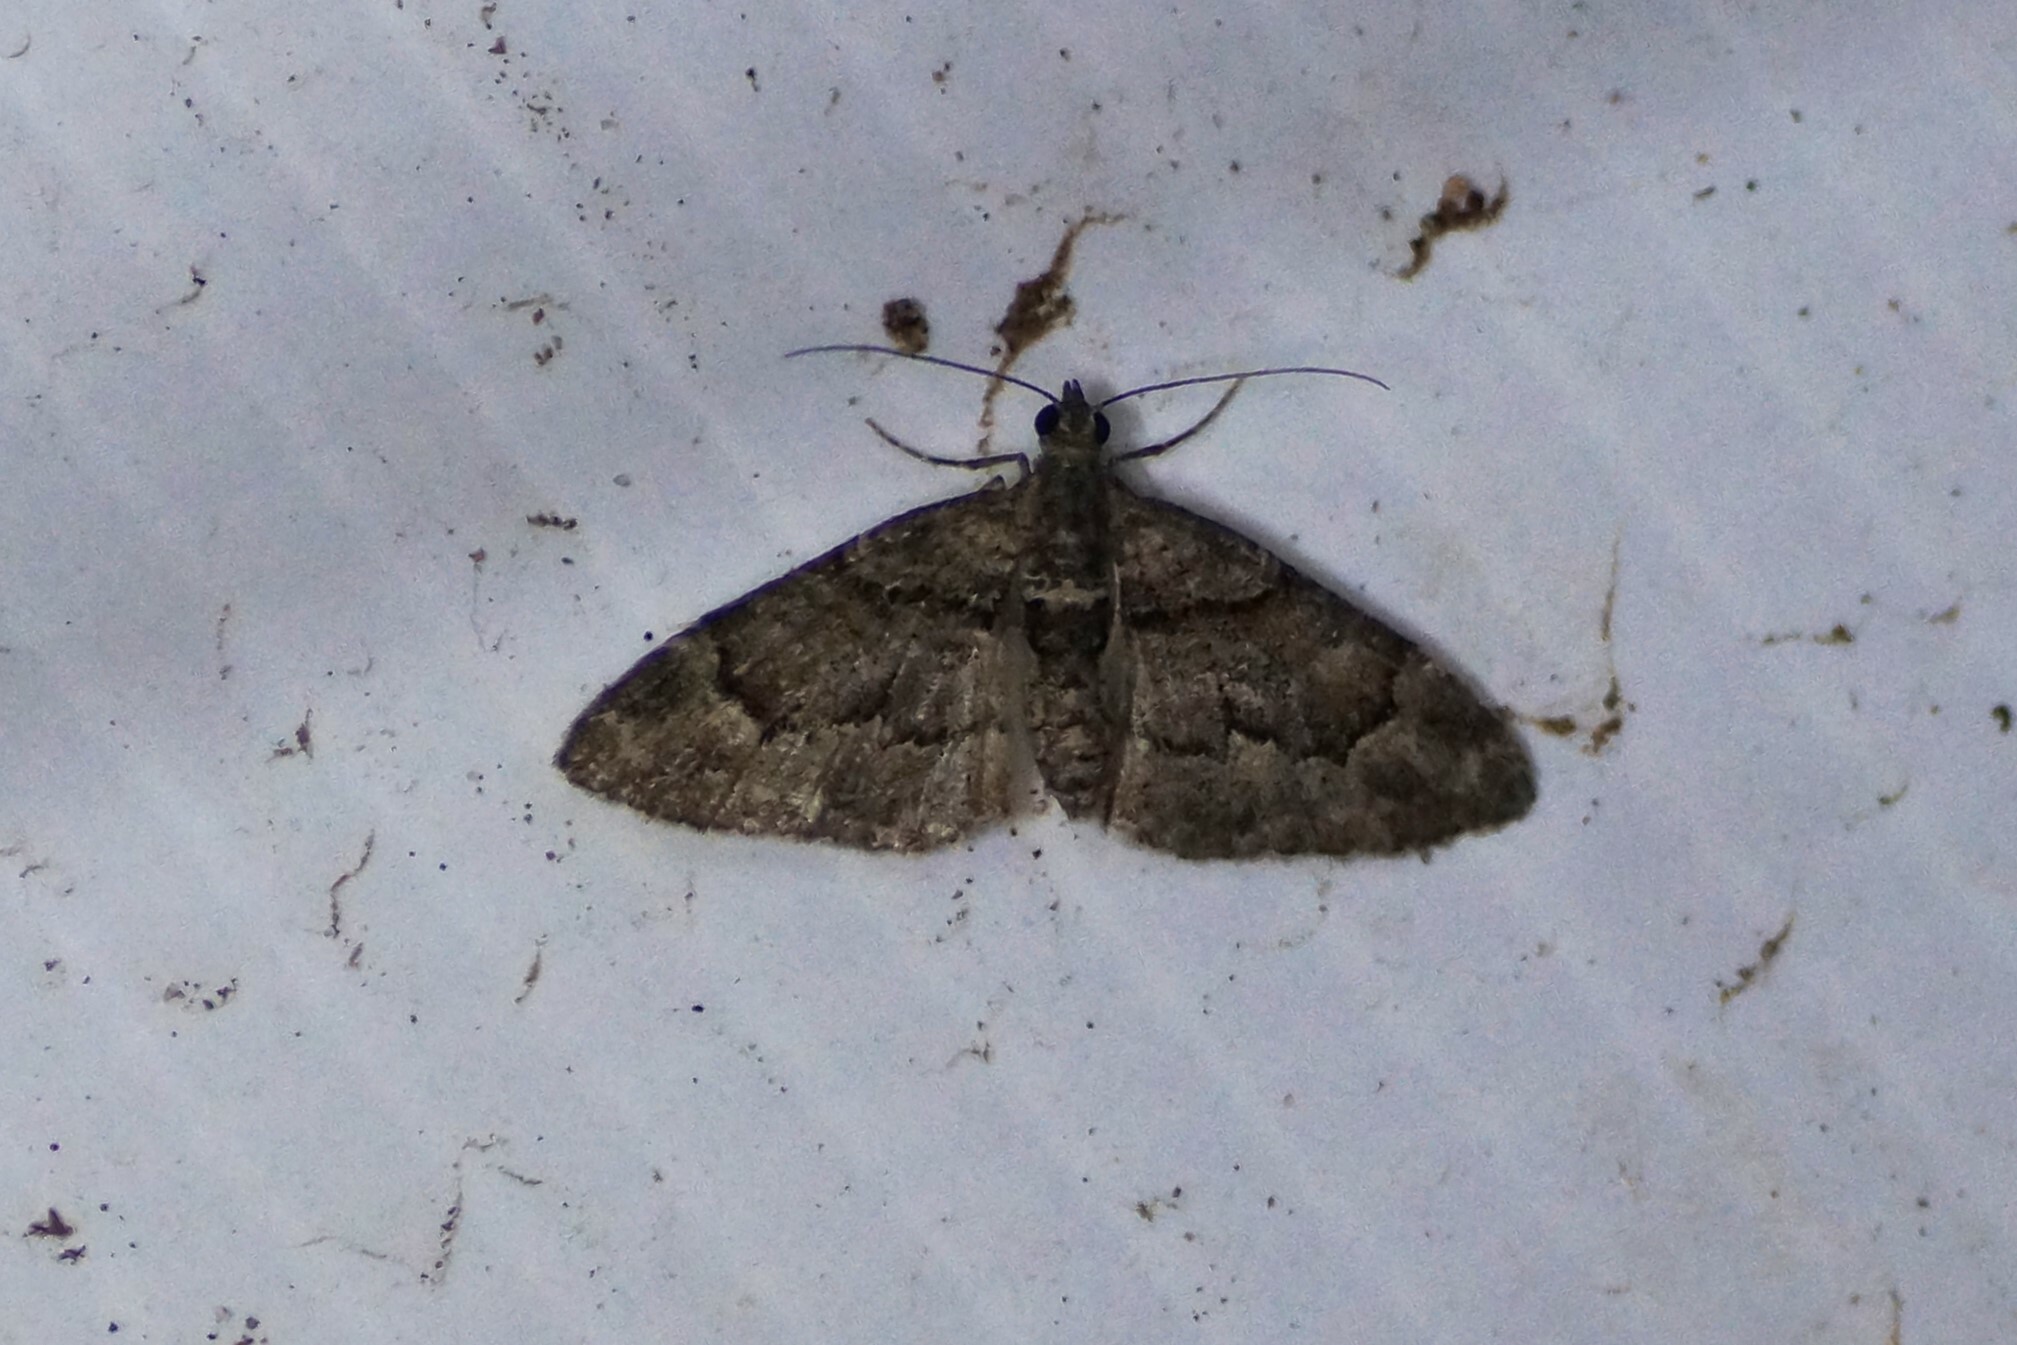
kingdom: Animalia
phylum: Arthropoda
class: Insecta
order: Lepidoptera
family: Geometridae
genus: Phrissogonus
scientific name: Phrissogonus laticostata
